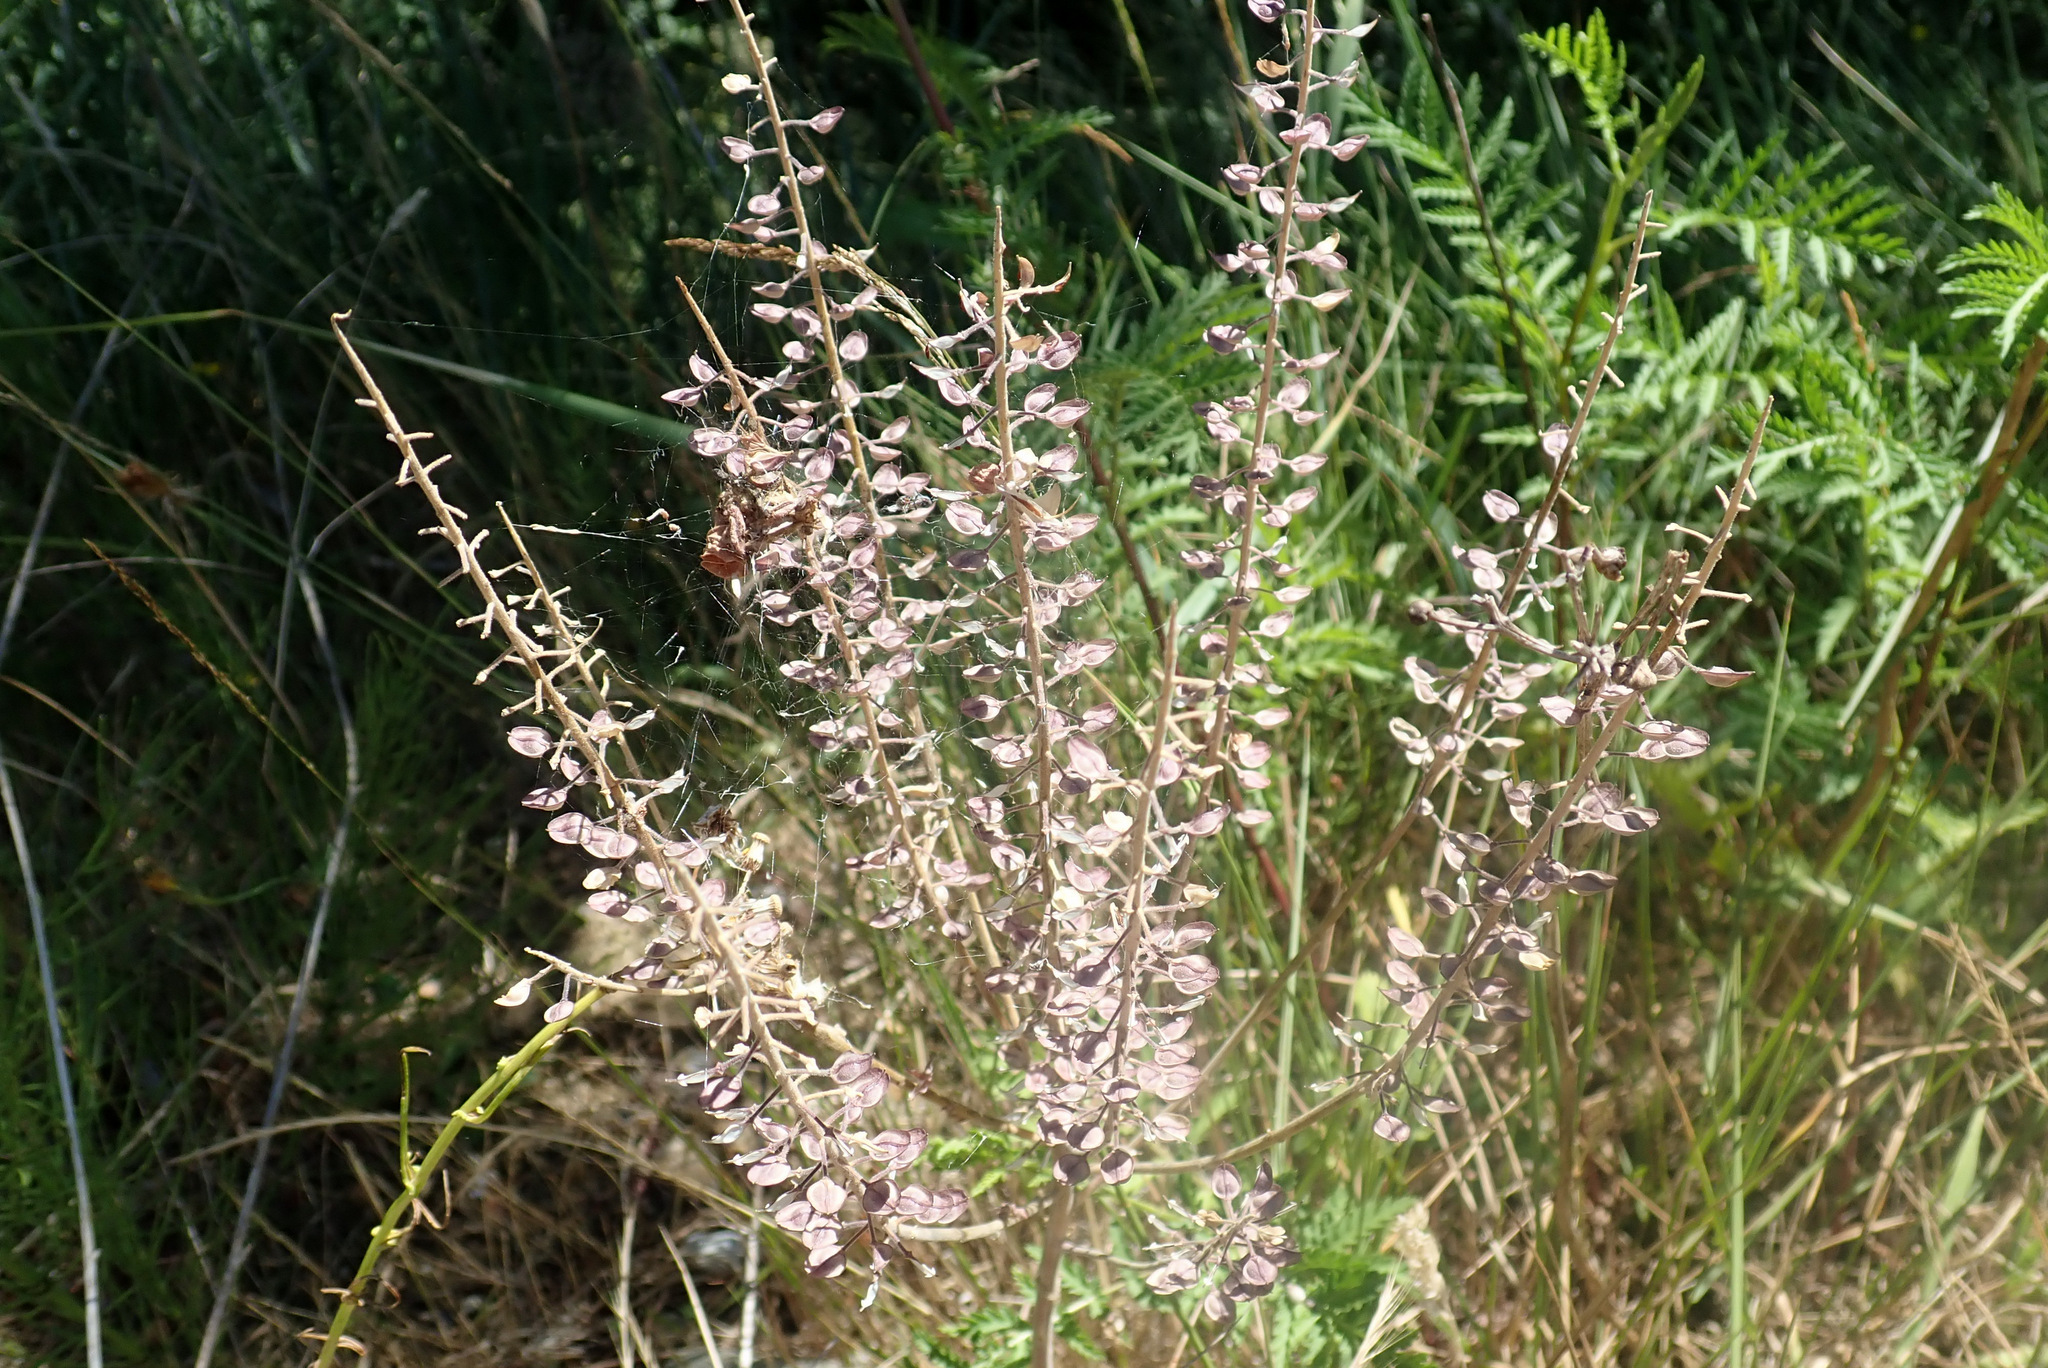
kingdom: Plantae
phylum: Tracheophyta
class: Magnoliopsida
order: Brassicales
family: Brassicaceae
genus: Lepidium
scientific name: Lepidium campestre
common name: Field pepperwort
